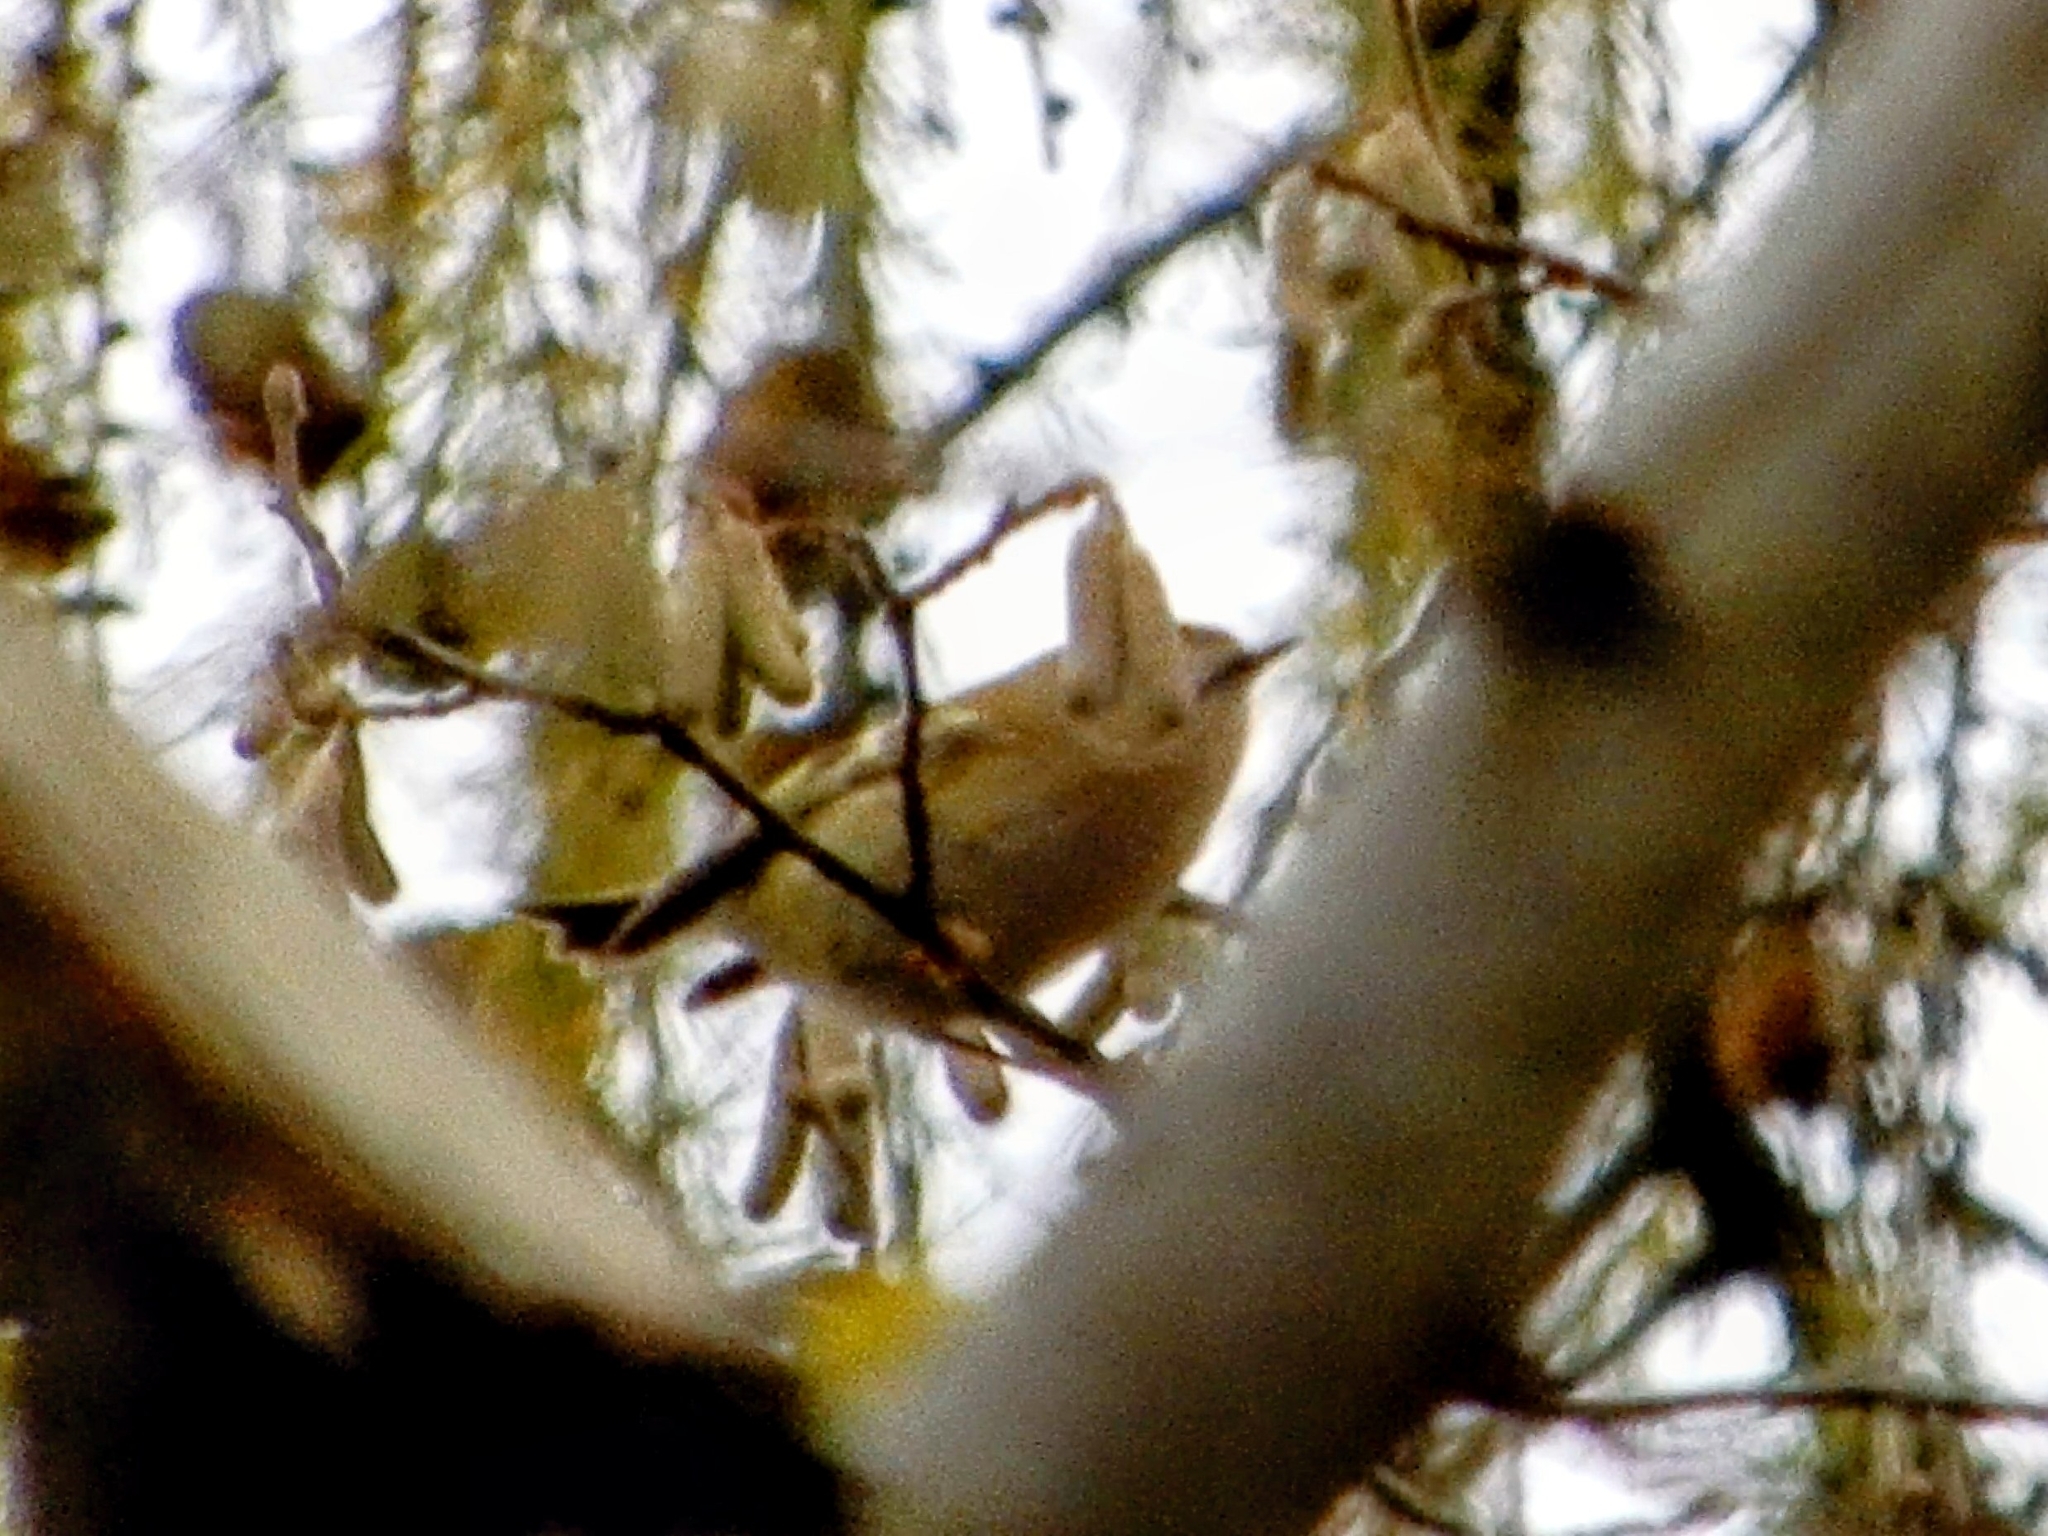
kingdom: Animalia
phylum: Chordata
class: Aves
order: Passeriformes
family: Regulidae
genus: Regulus
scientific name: Regulus regulus
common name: Goldcrest
